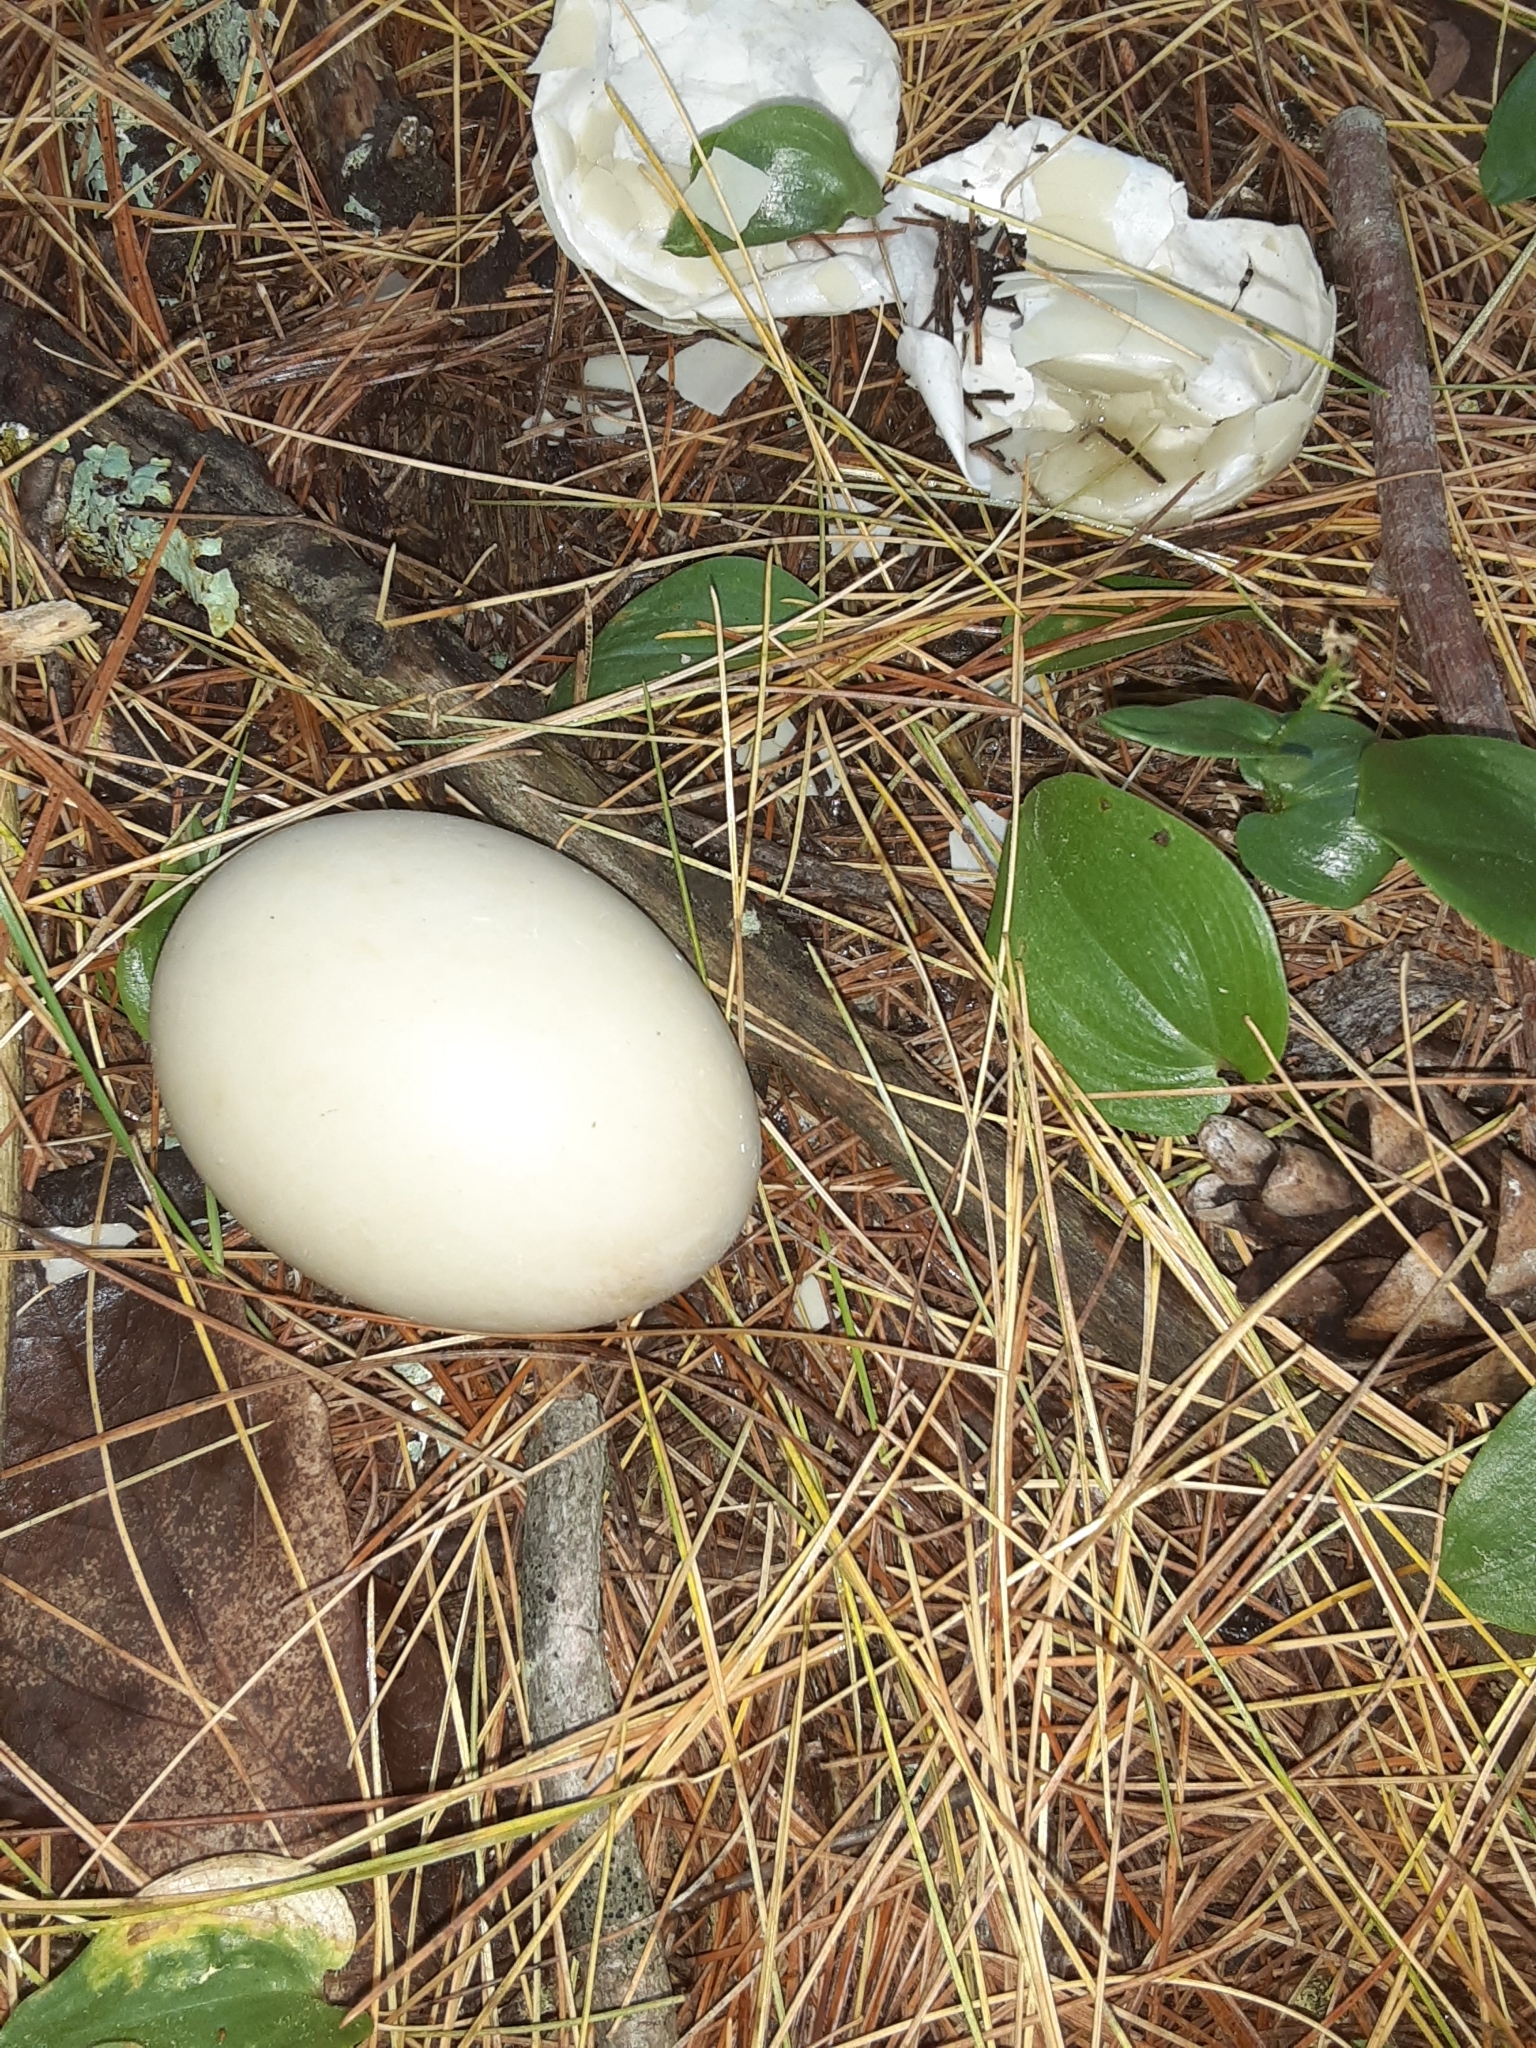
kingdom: Animalia
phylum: Chordata
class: Aves
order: Anseriformes
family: Anatidae
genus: Anas
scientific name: Anas platyrhynchos
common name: Mallard
